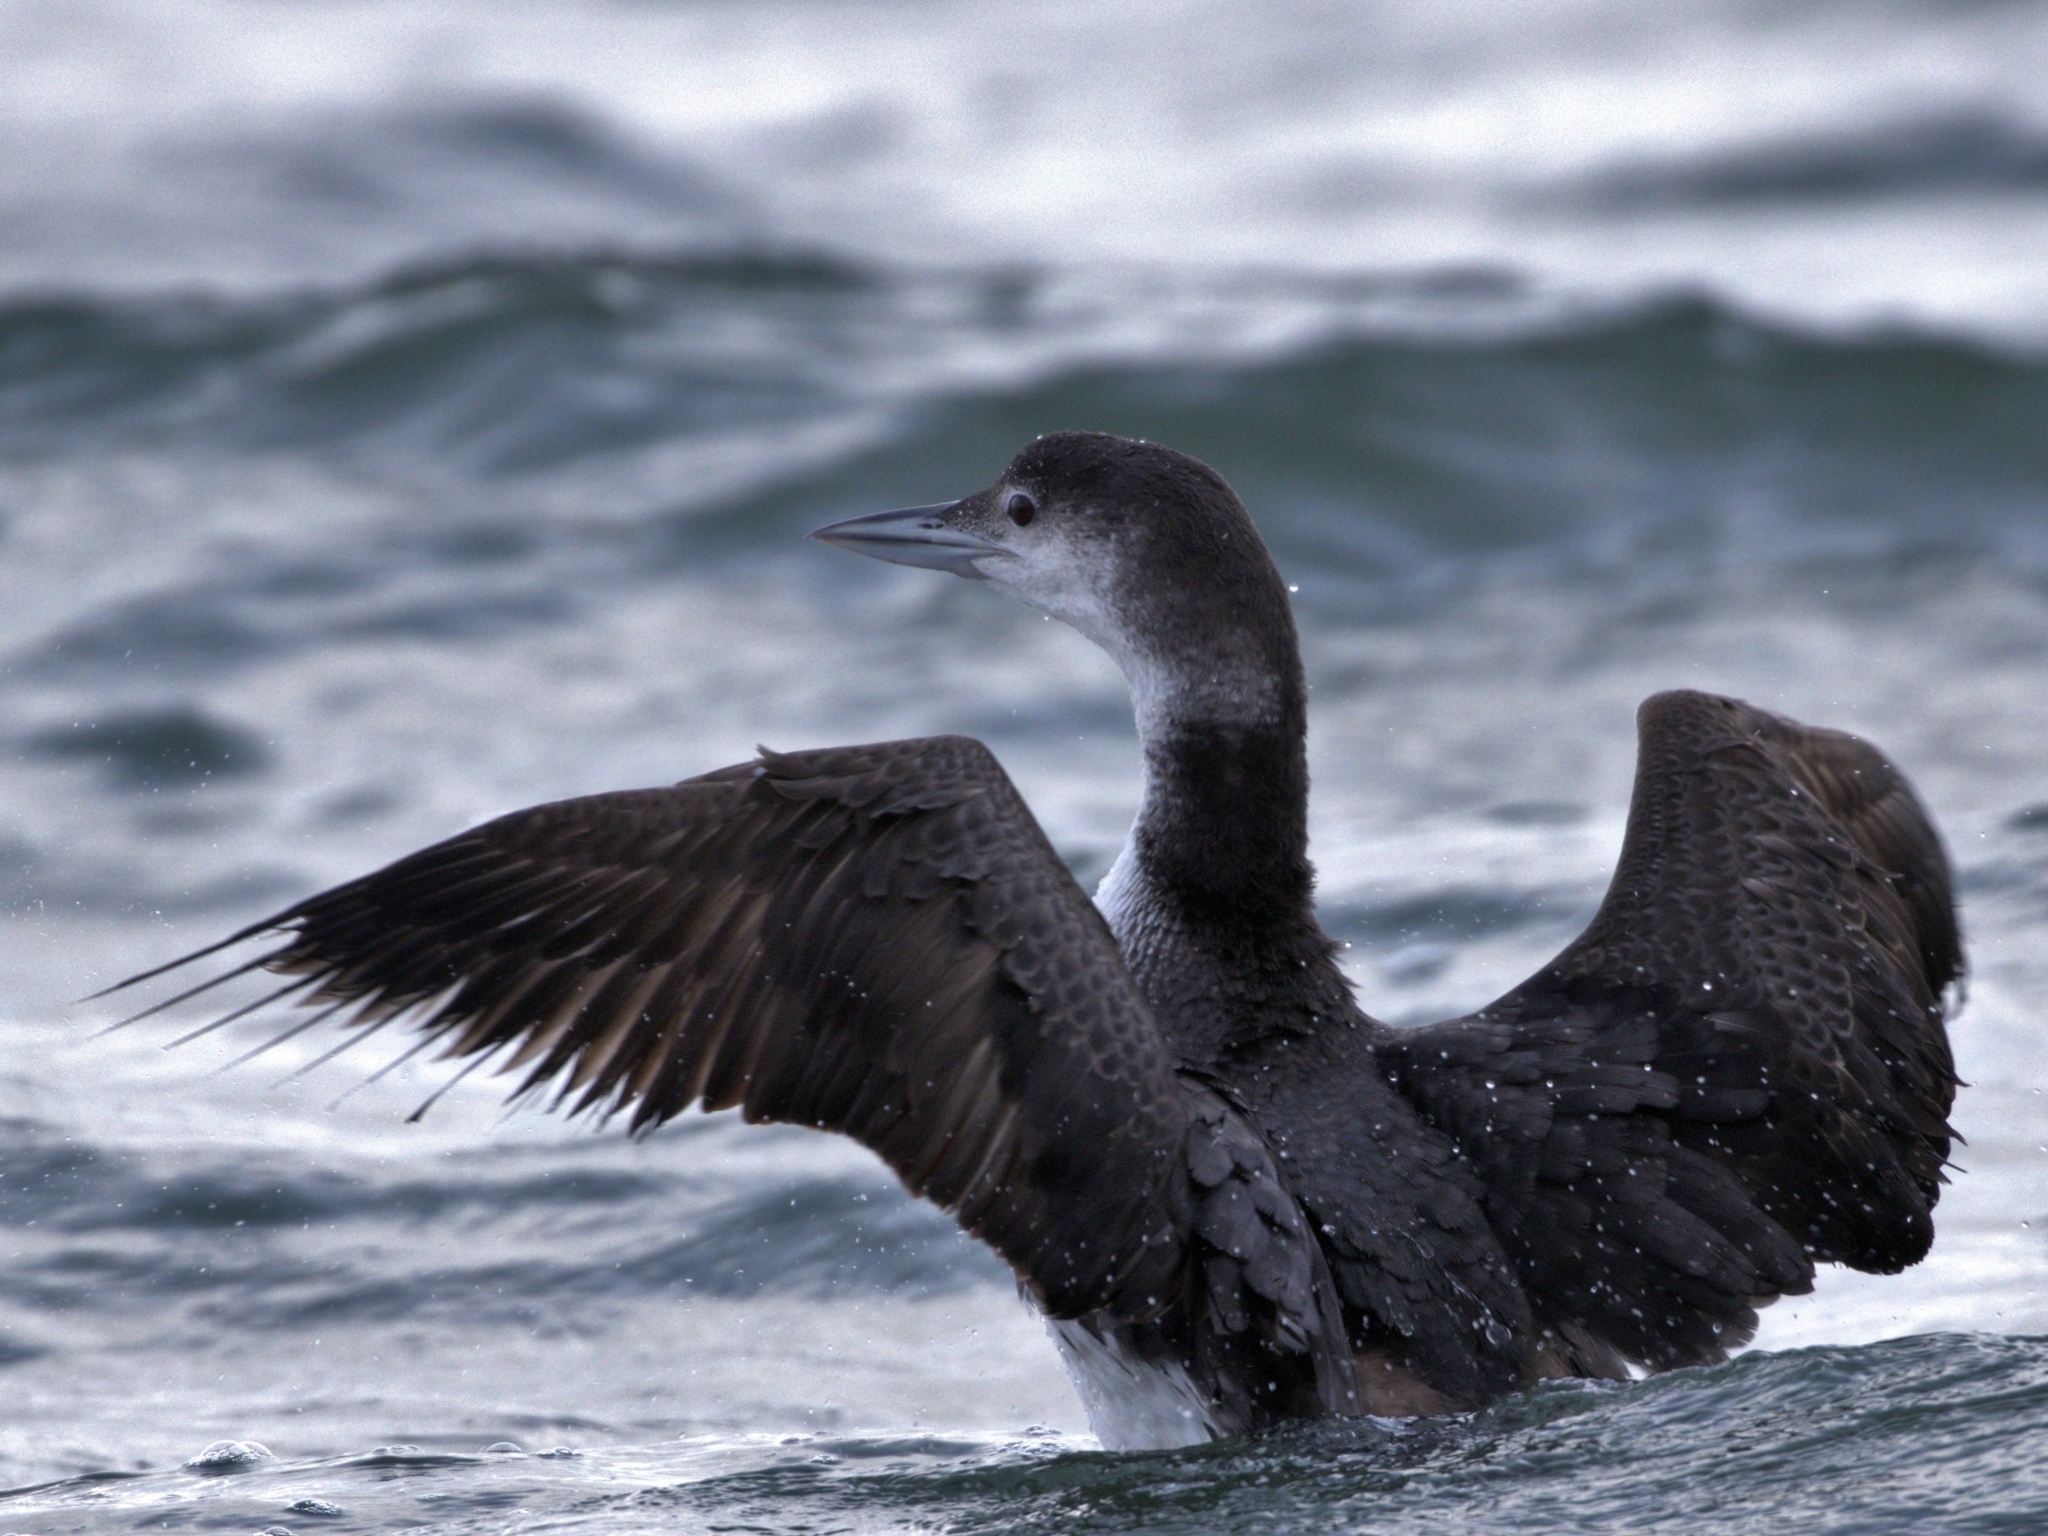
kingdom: Animalia
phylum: Chordata
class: Aves
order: Gaviiformes
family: Gaviidae
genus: Gavia
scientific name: Gavia immer
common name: Common loon
